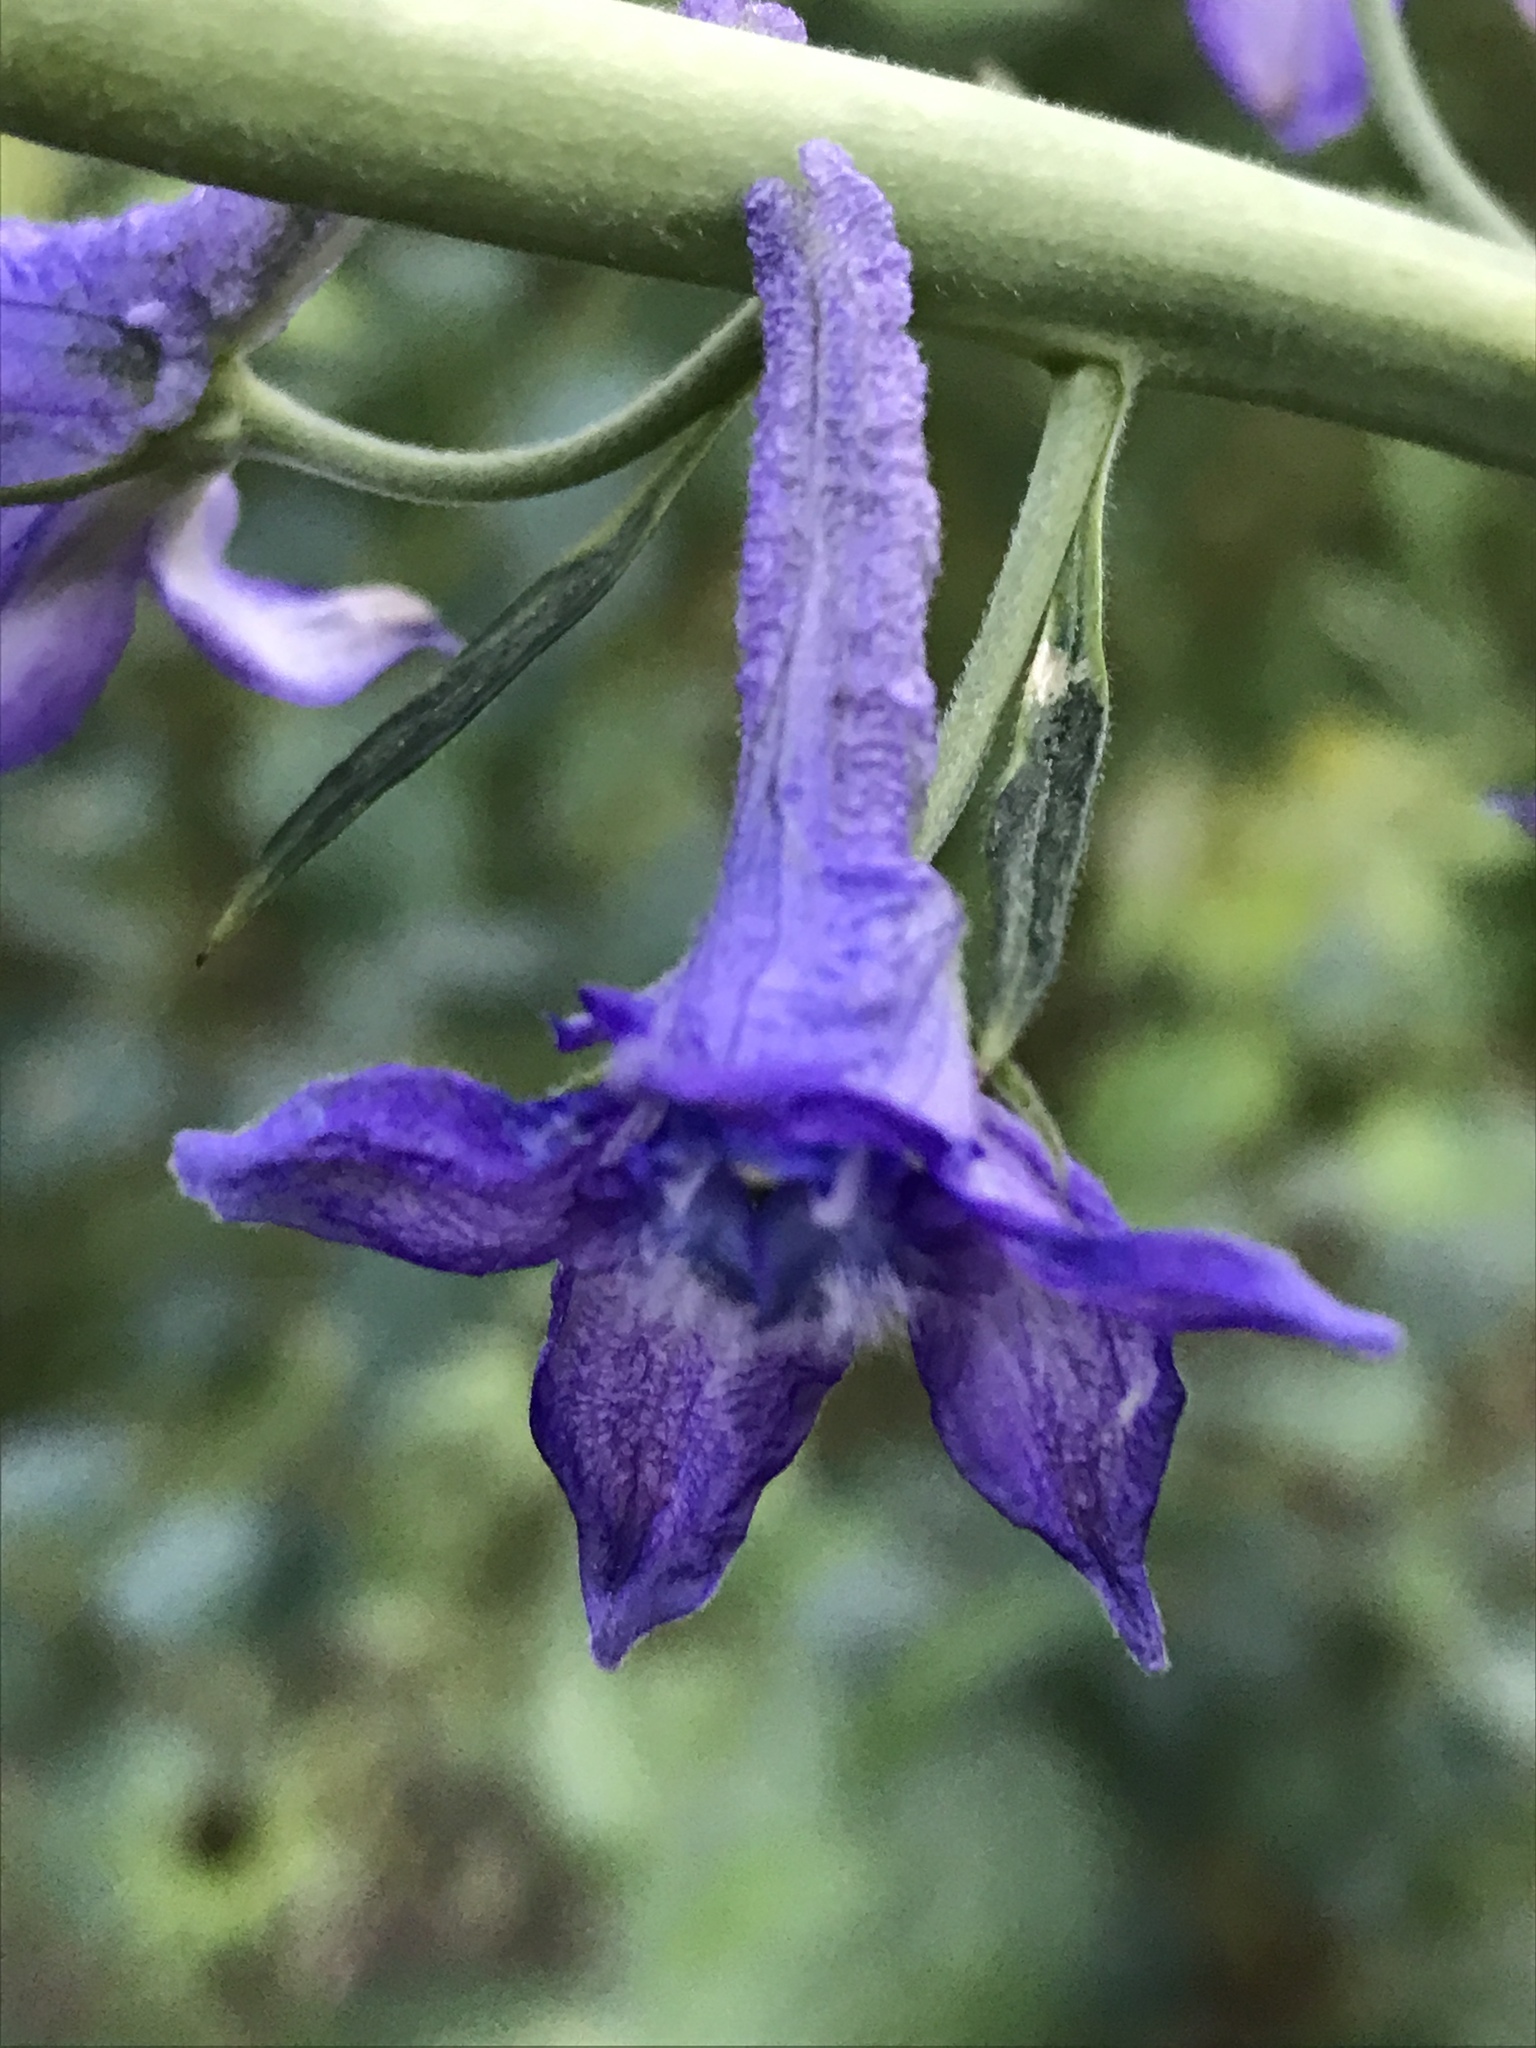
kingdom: Plantae
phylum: Tracheophyta
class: Magnoliopsida
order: Ranunculales
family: Ranunculaceae
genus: Delphinium
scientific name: Delphinium occidentale
